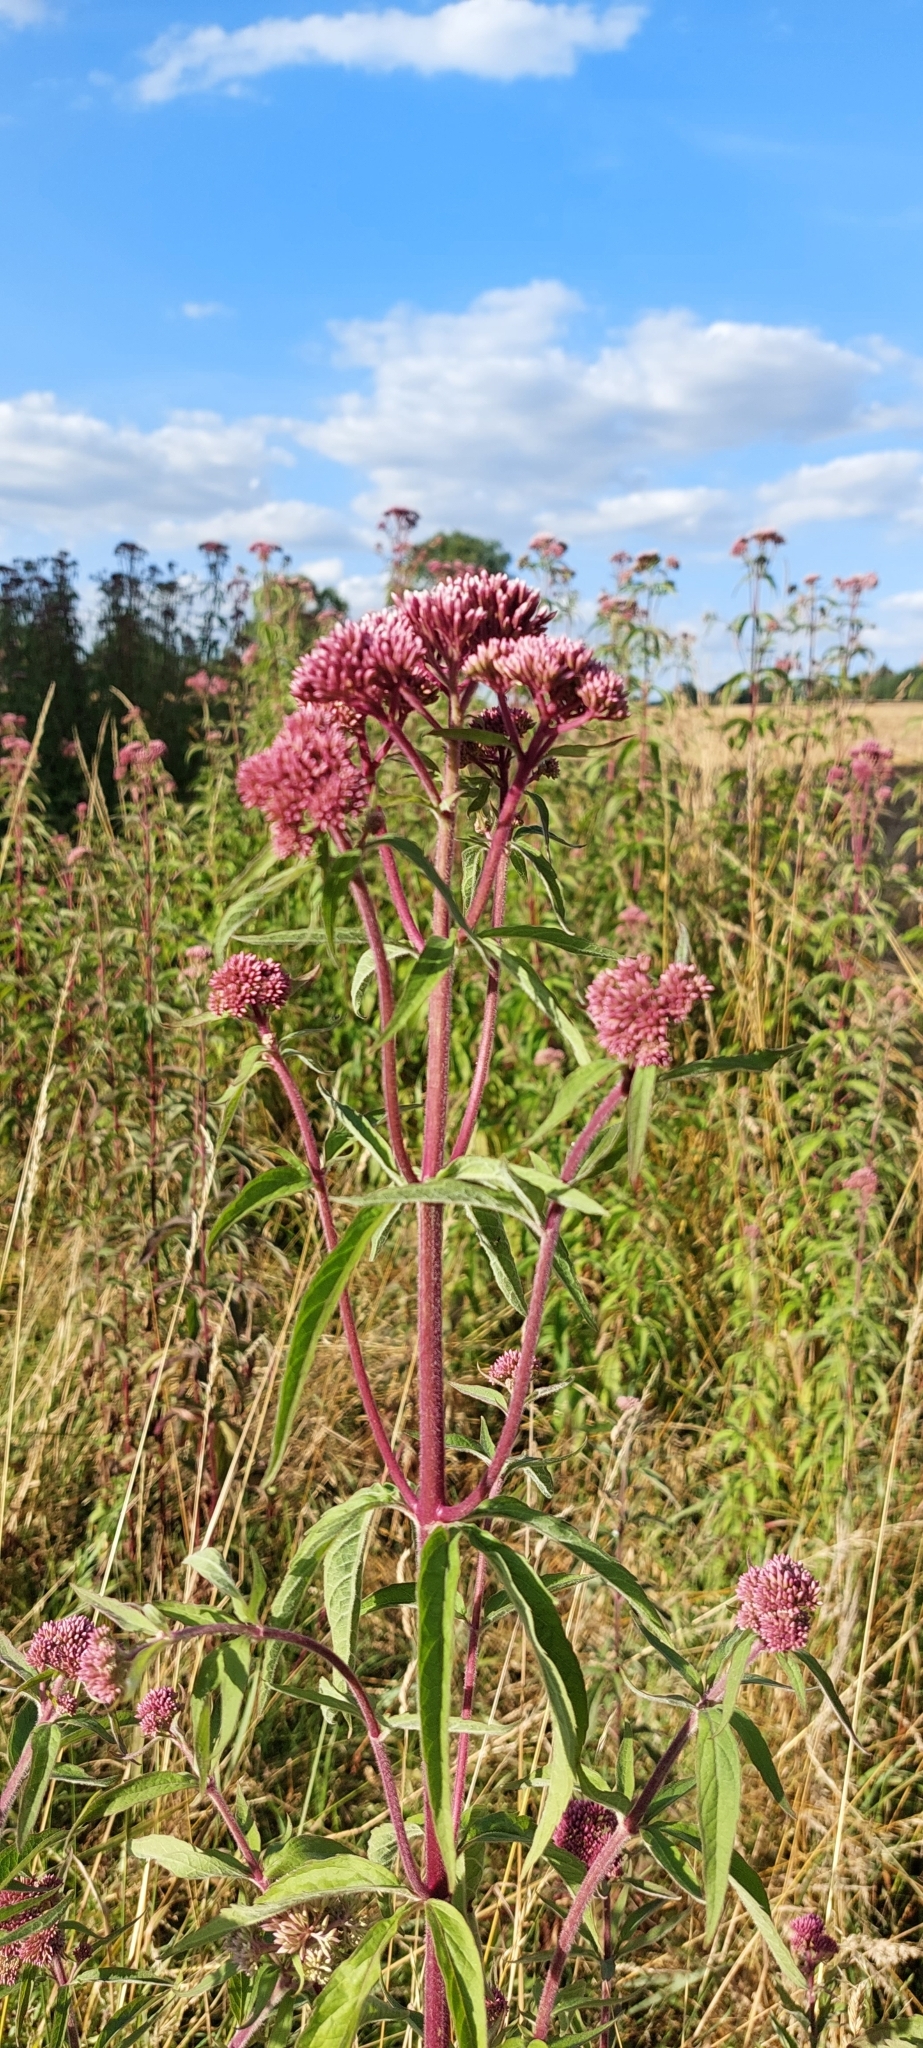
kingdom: Plantae
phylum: Tracheophyta
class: Magnoliopsida
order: Asterales
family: Asteraceae
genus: Eupatorium
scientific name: Eupatorium cannabinum
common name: Hemp-agrimony
